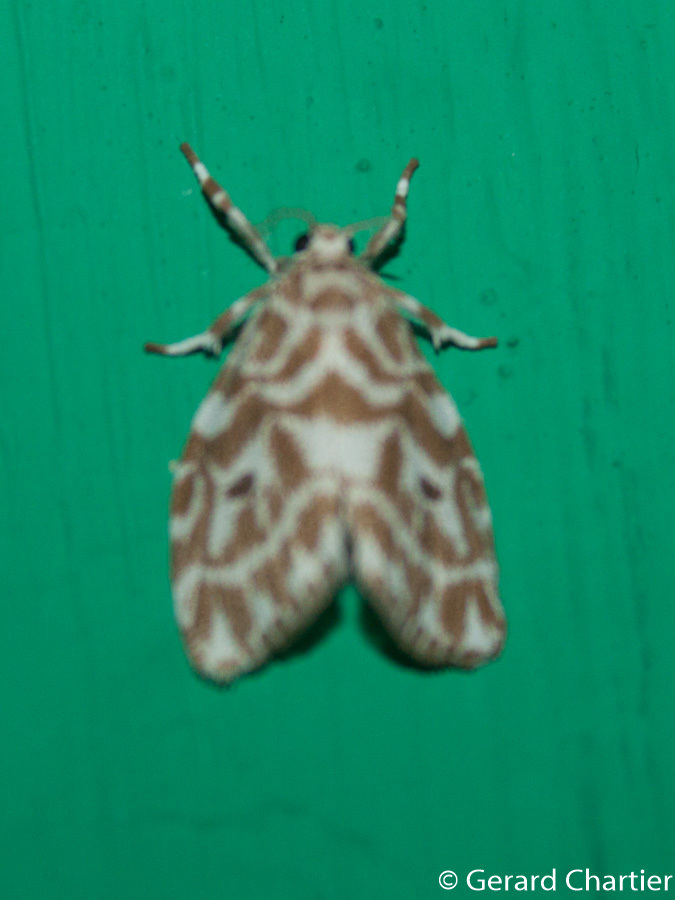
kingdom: Animalia
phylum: Arthropoda
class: Insecta
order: Lepidoptera
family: Erebidae
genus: Cabarda
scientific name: Cabarda sequens
